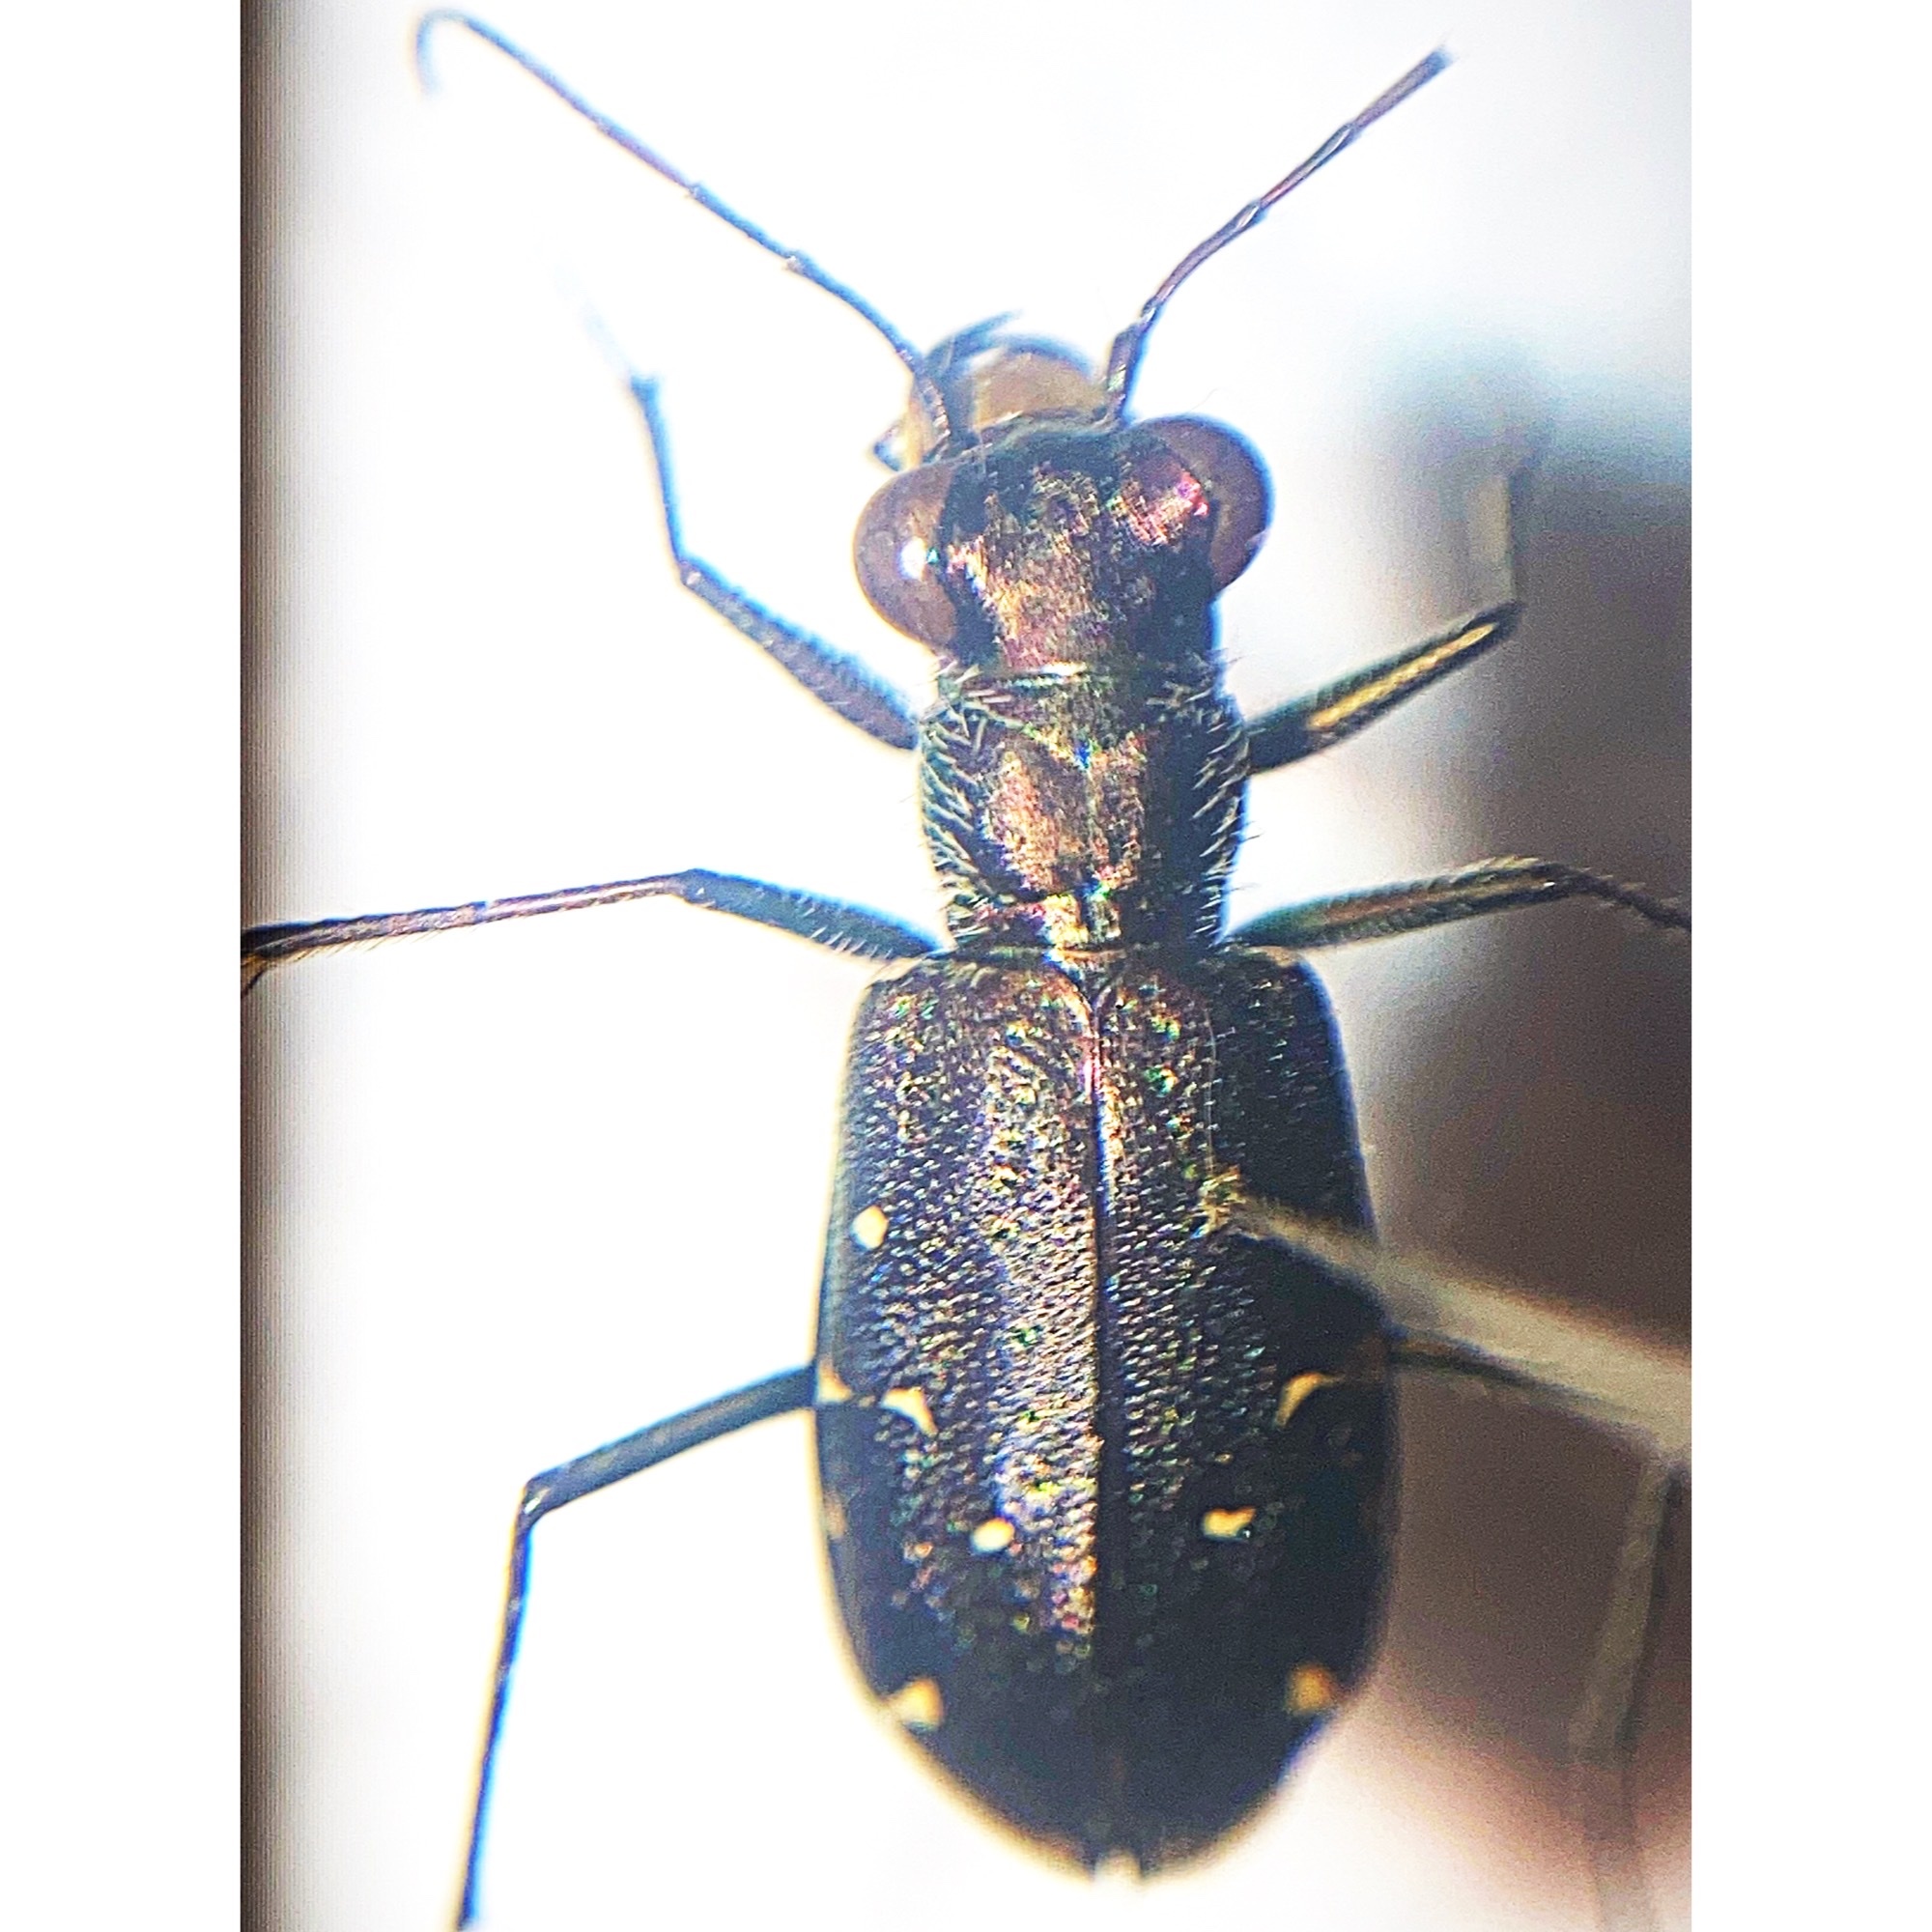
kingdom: Animalia
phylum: Arthropoda
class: Insecta
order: Coleoptera
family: Carabidae
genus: Cicindela
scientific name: Cicindela punctulata
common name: Punctured tiger beetle
